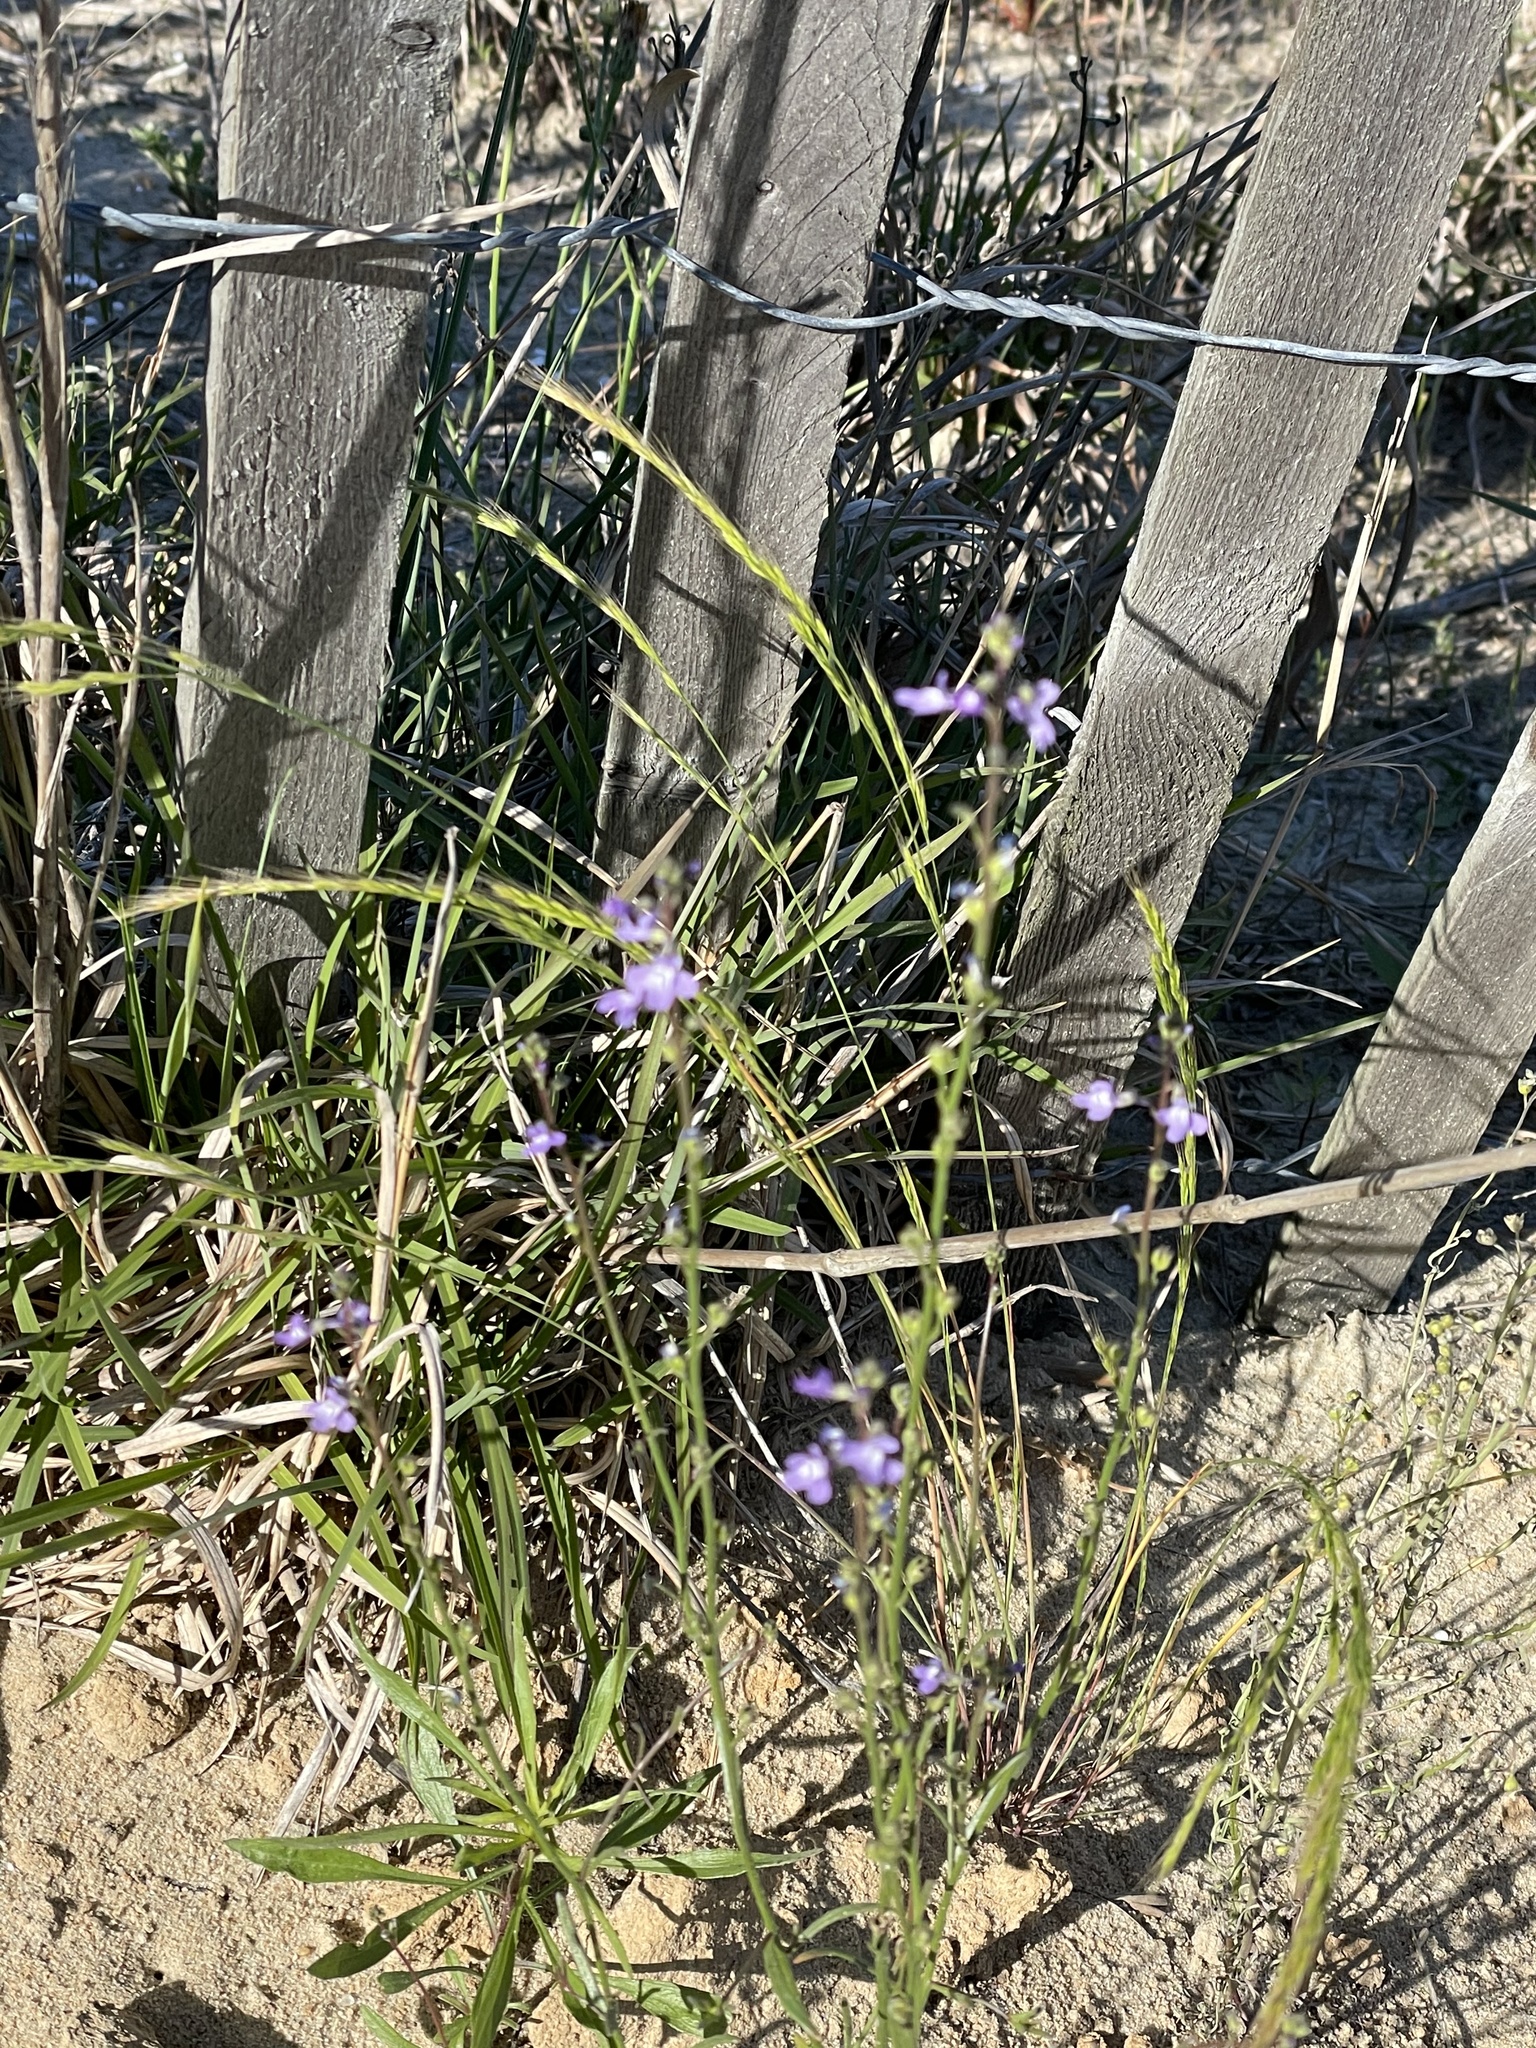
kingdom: Plantae
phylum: Tracheophyta
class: Magnoliopsida
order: Lamiales
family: Plantaginaceae
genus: Nuttallanthus
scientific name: Nuttallanthus canadensis
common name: Blue toadflax
